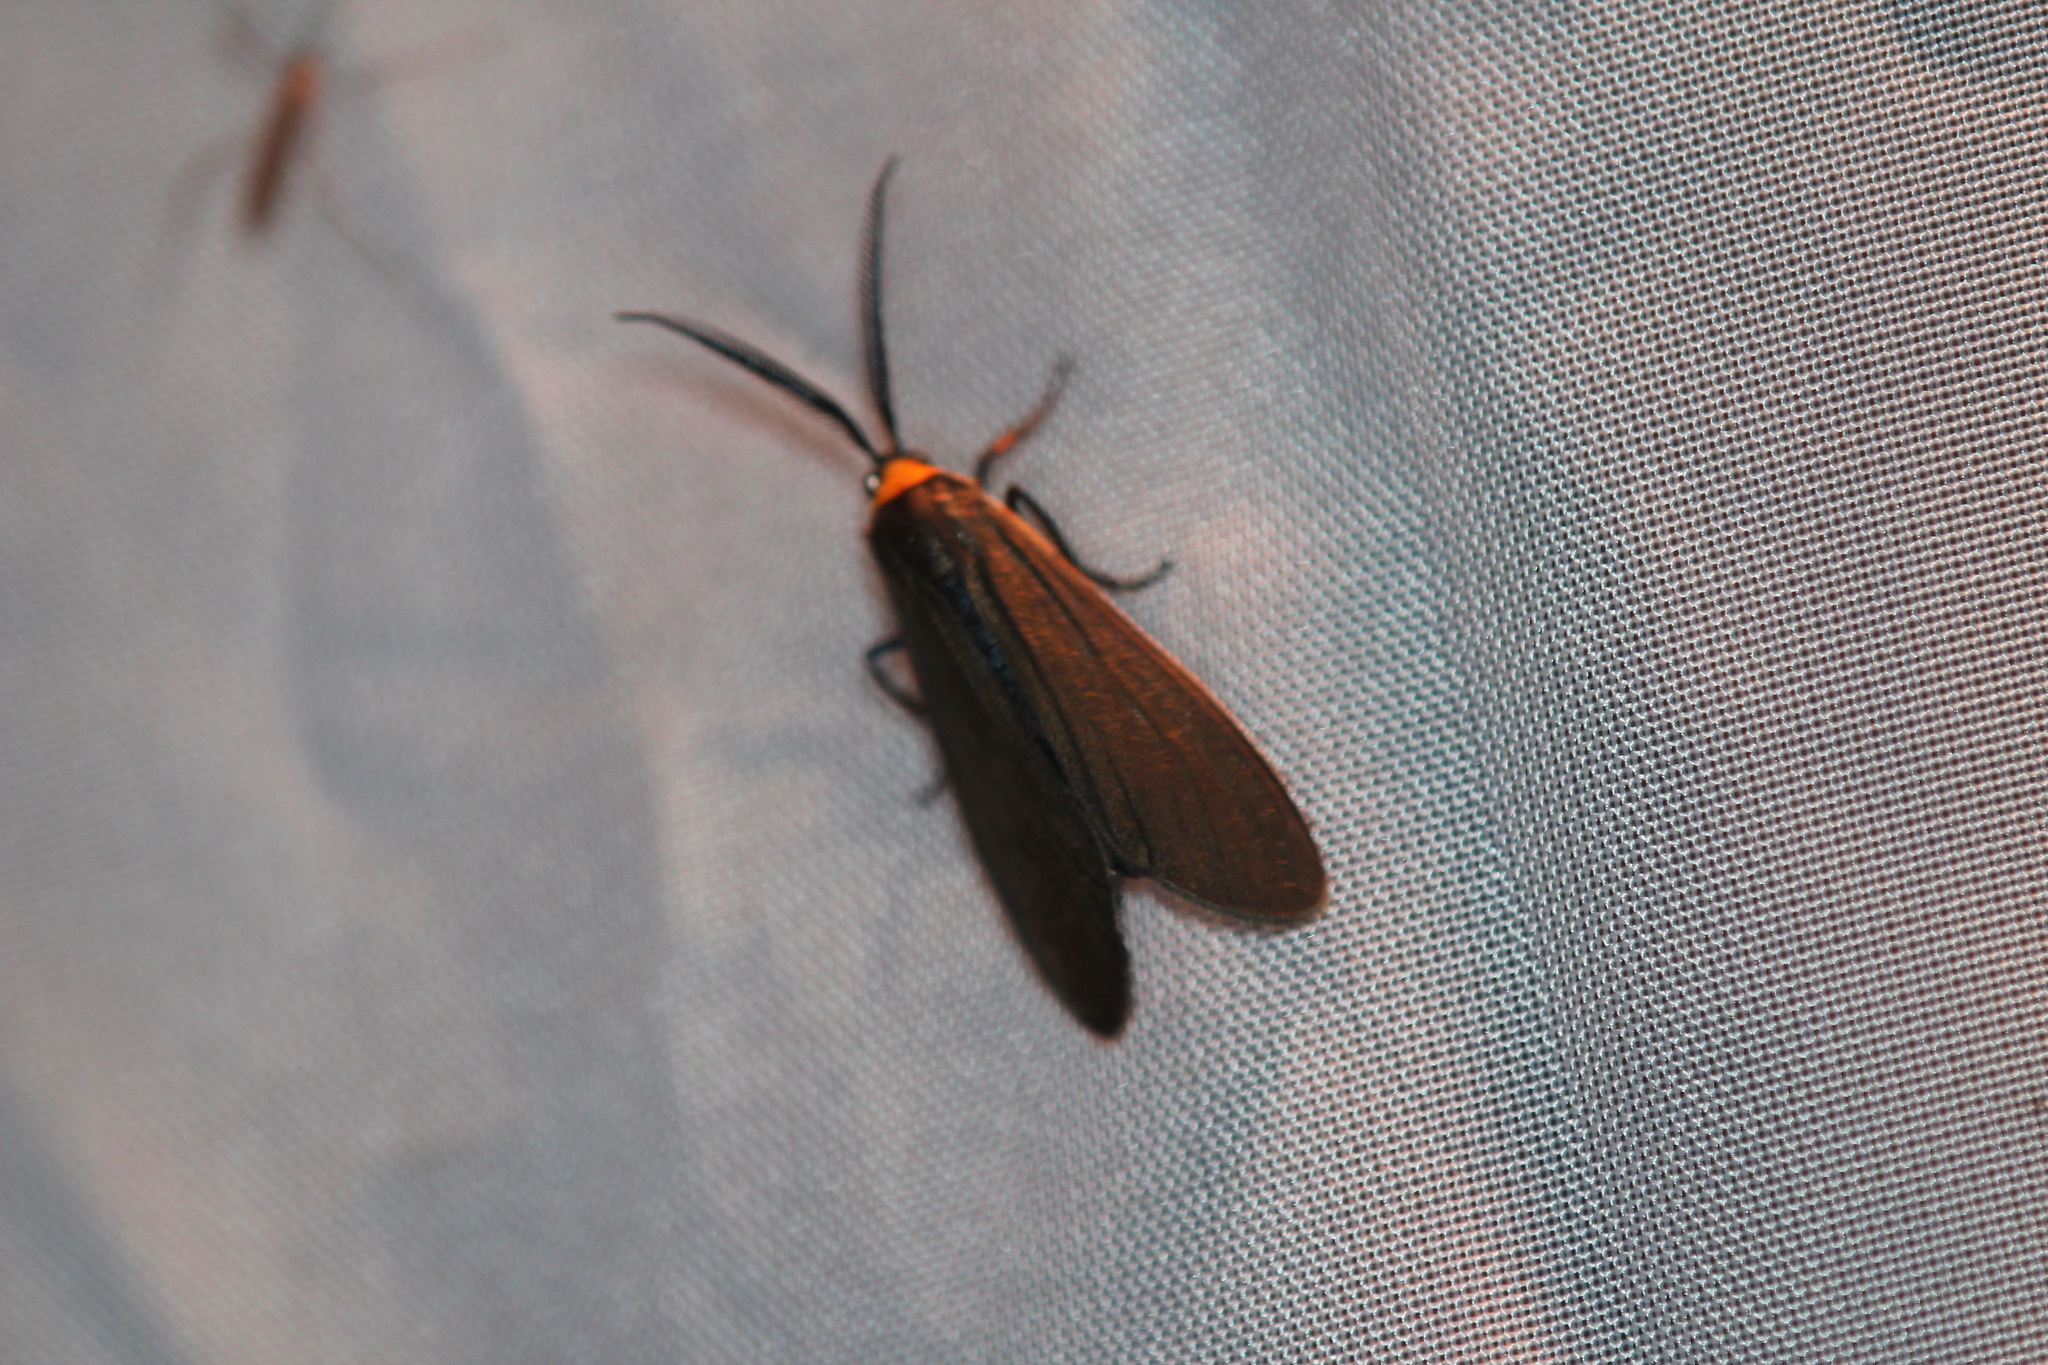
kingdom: Animalia
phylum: Arthropoda
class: Insecta
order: Lepidoptera
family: Erebidae
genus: Cisseps
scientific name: Cisseps fulvicollis
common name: Yellow-collared scape moth
